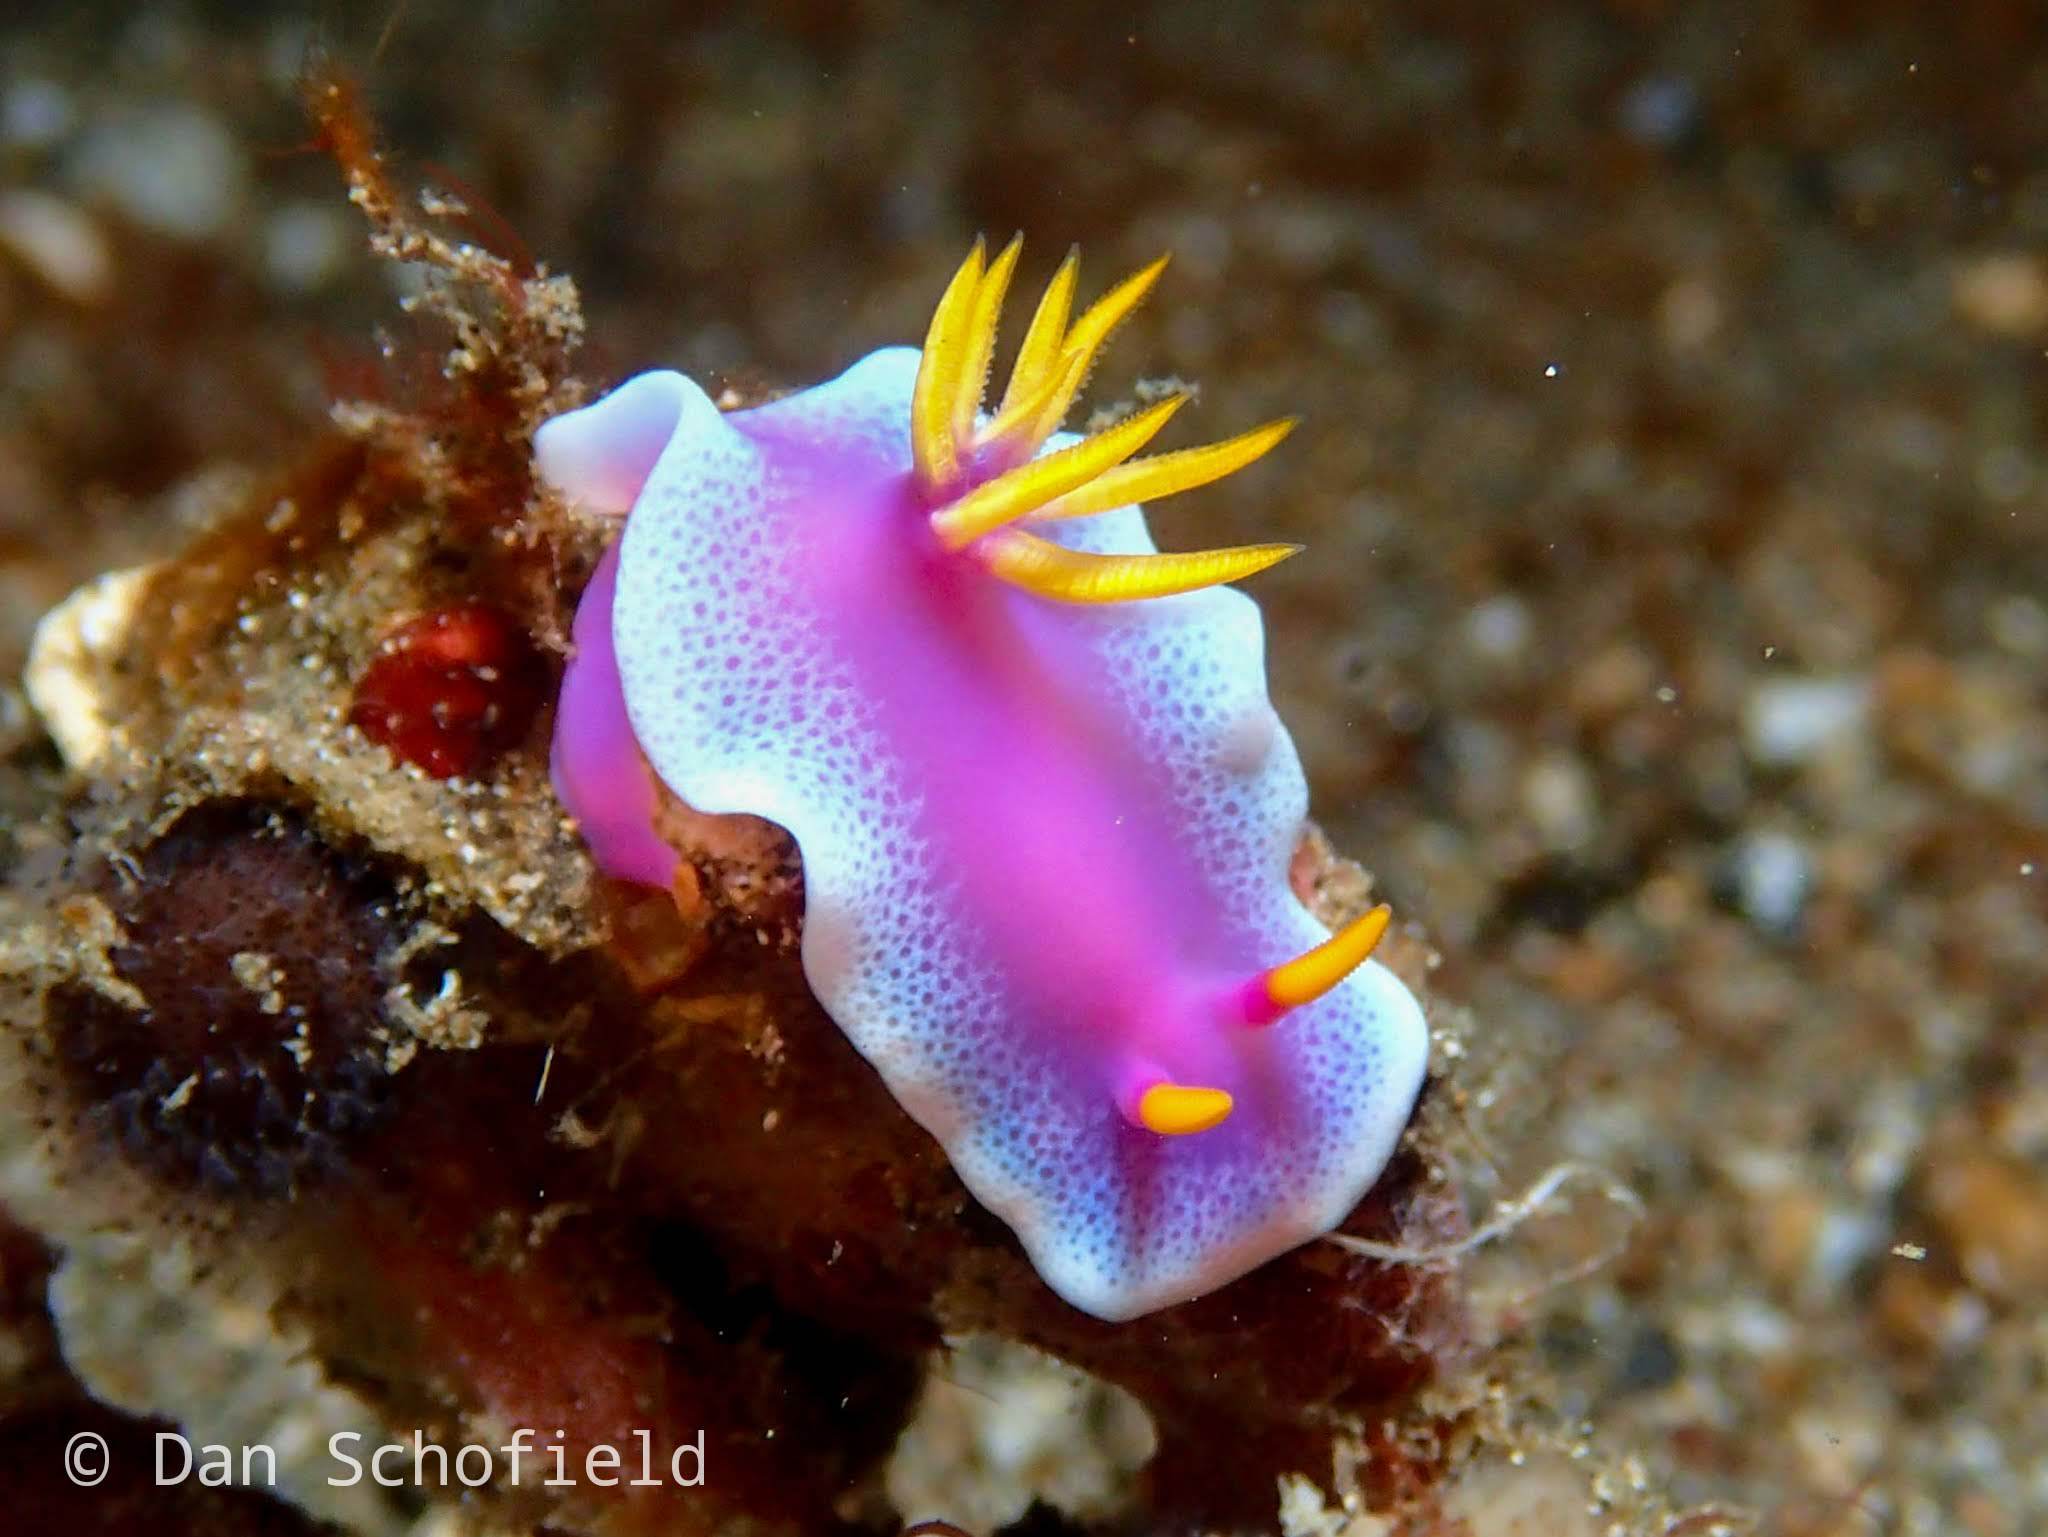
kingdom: Animalia
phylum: Mollusca
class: Gastropoda
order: Nudibranchia
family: Chromodorididae
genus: Hypselodoris
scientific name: Hypselodoris apolegma
